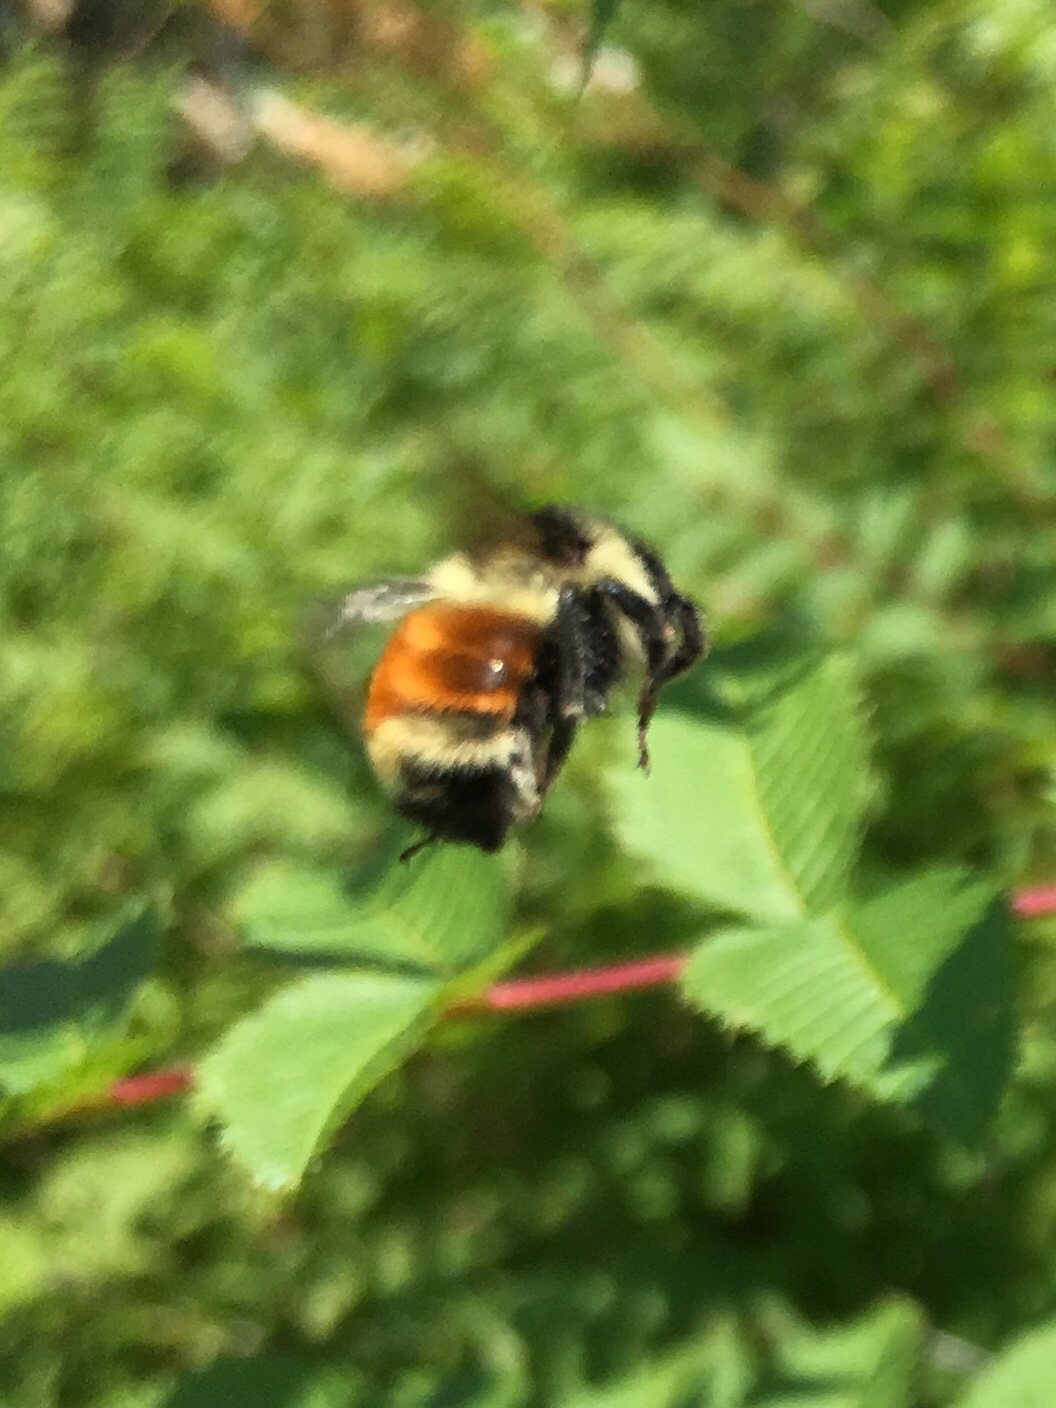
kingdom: Animalia
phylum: Arthropoda
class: Insecta
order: Hymenoptera
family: Apidae
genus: Bombus
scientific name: Bombus ternarius
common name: Tri-colored bumble bee
